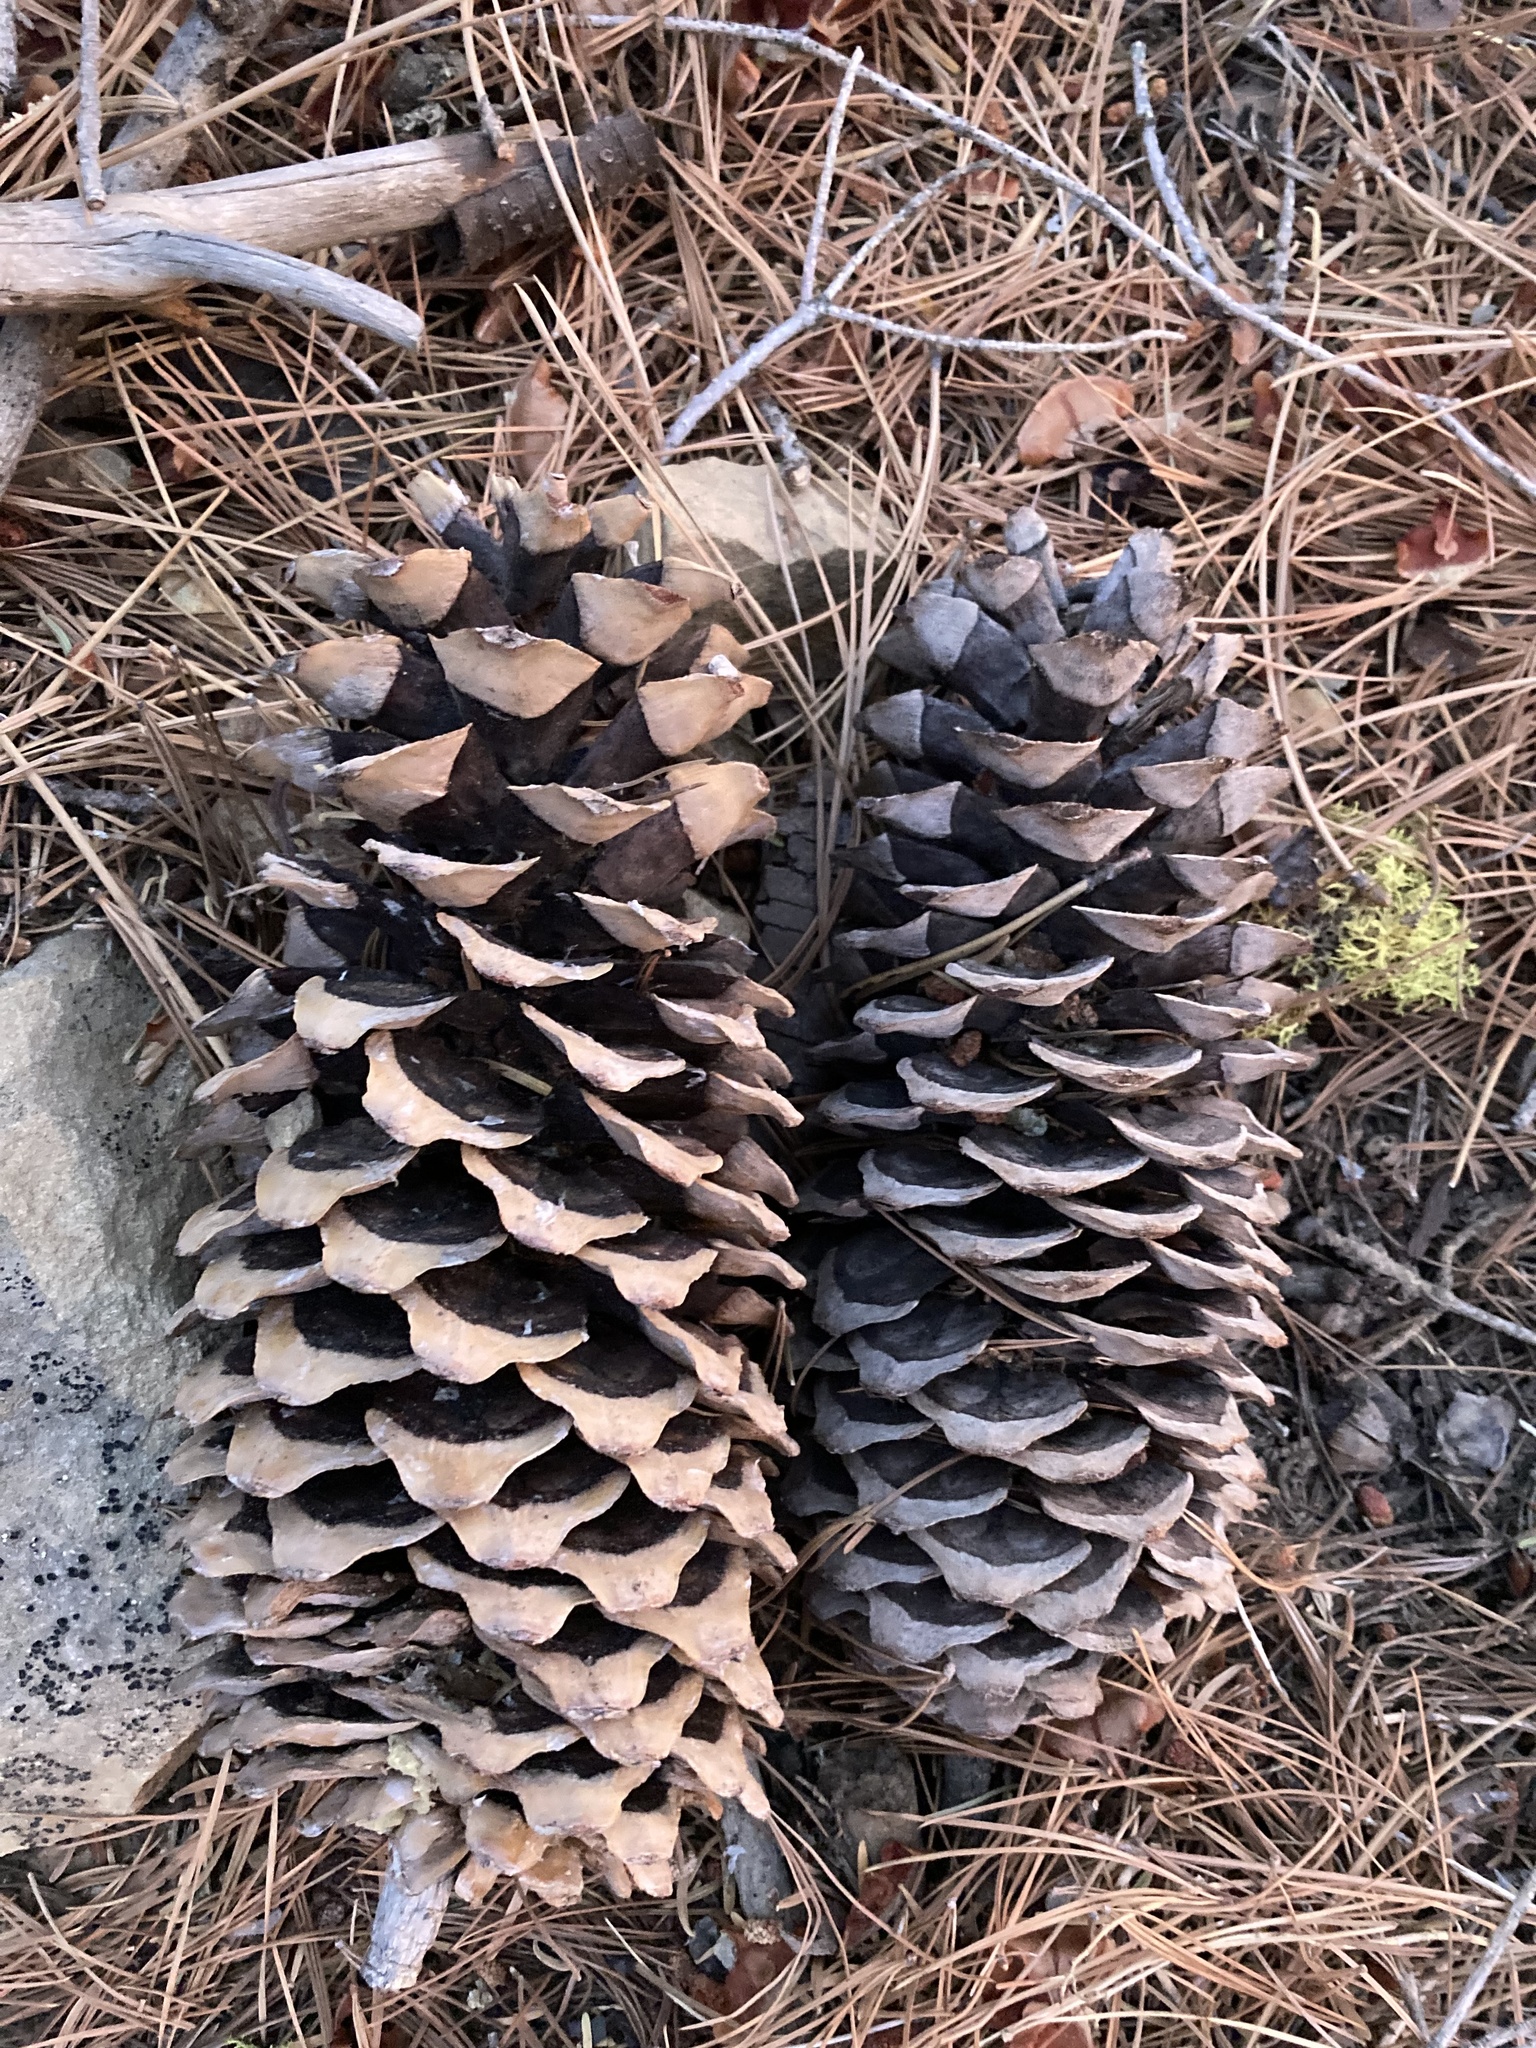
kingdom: Plantae
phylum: Tracheophyta
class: Pinopsida
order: Pinales
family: Pinaceae
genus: Pinus
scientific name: Pinus lambertiana
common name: Sugar pine
